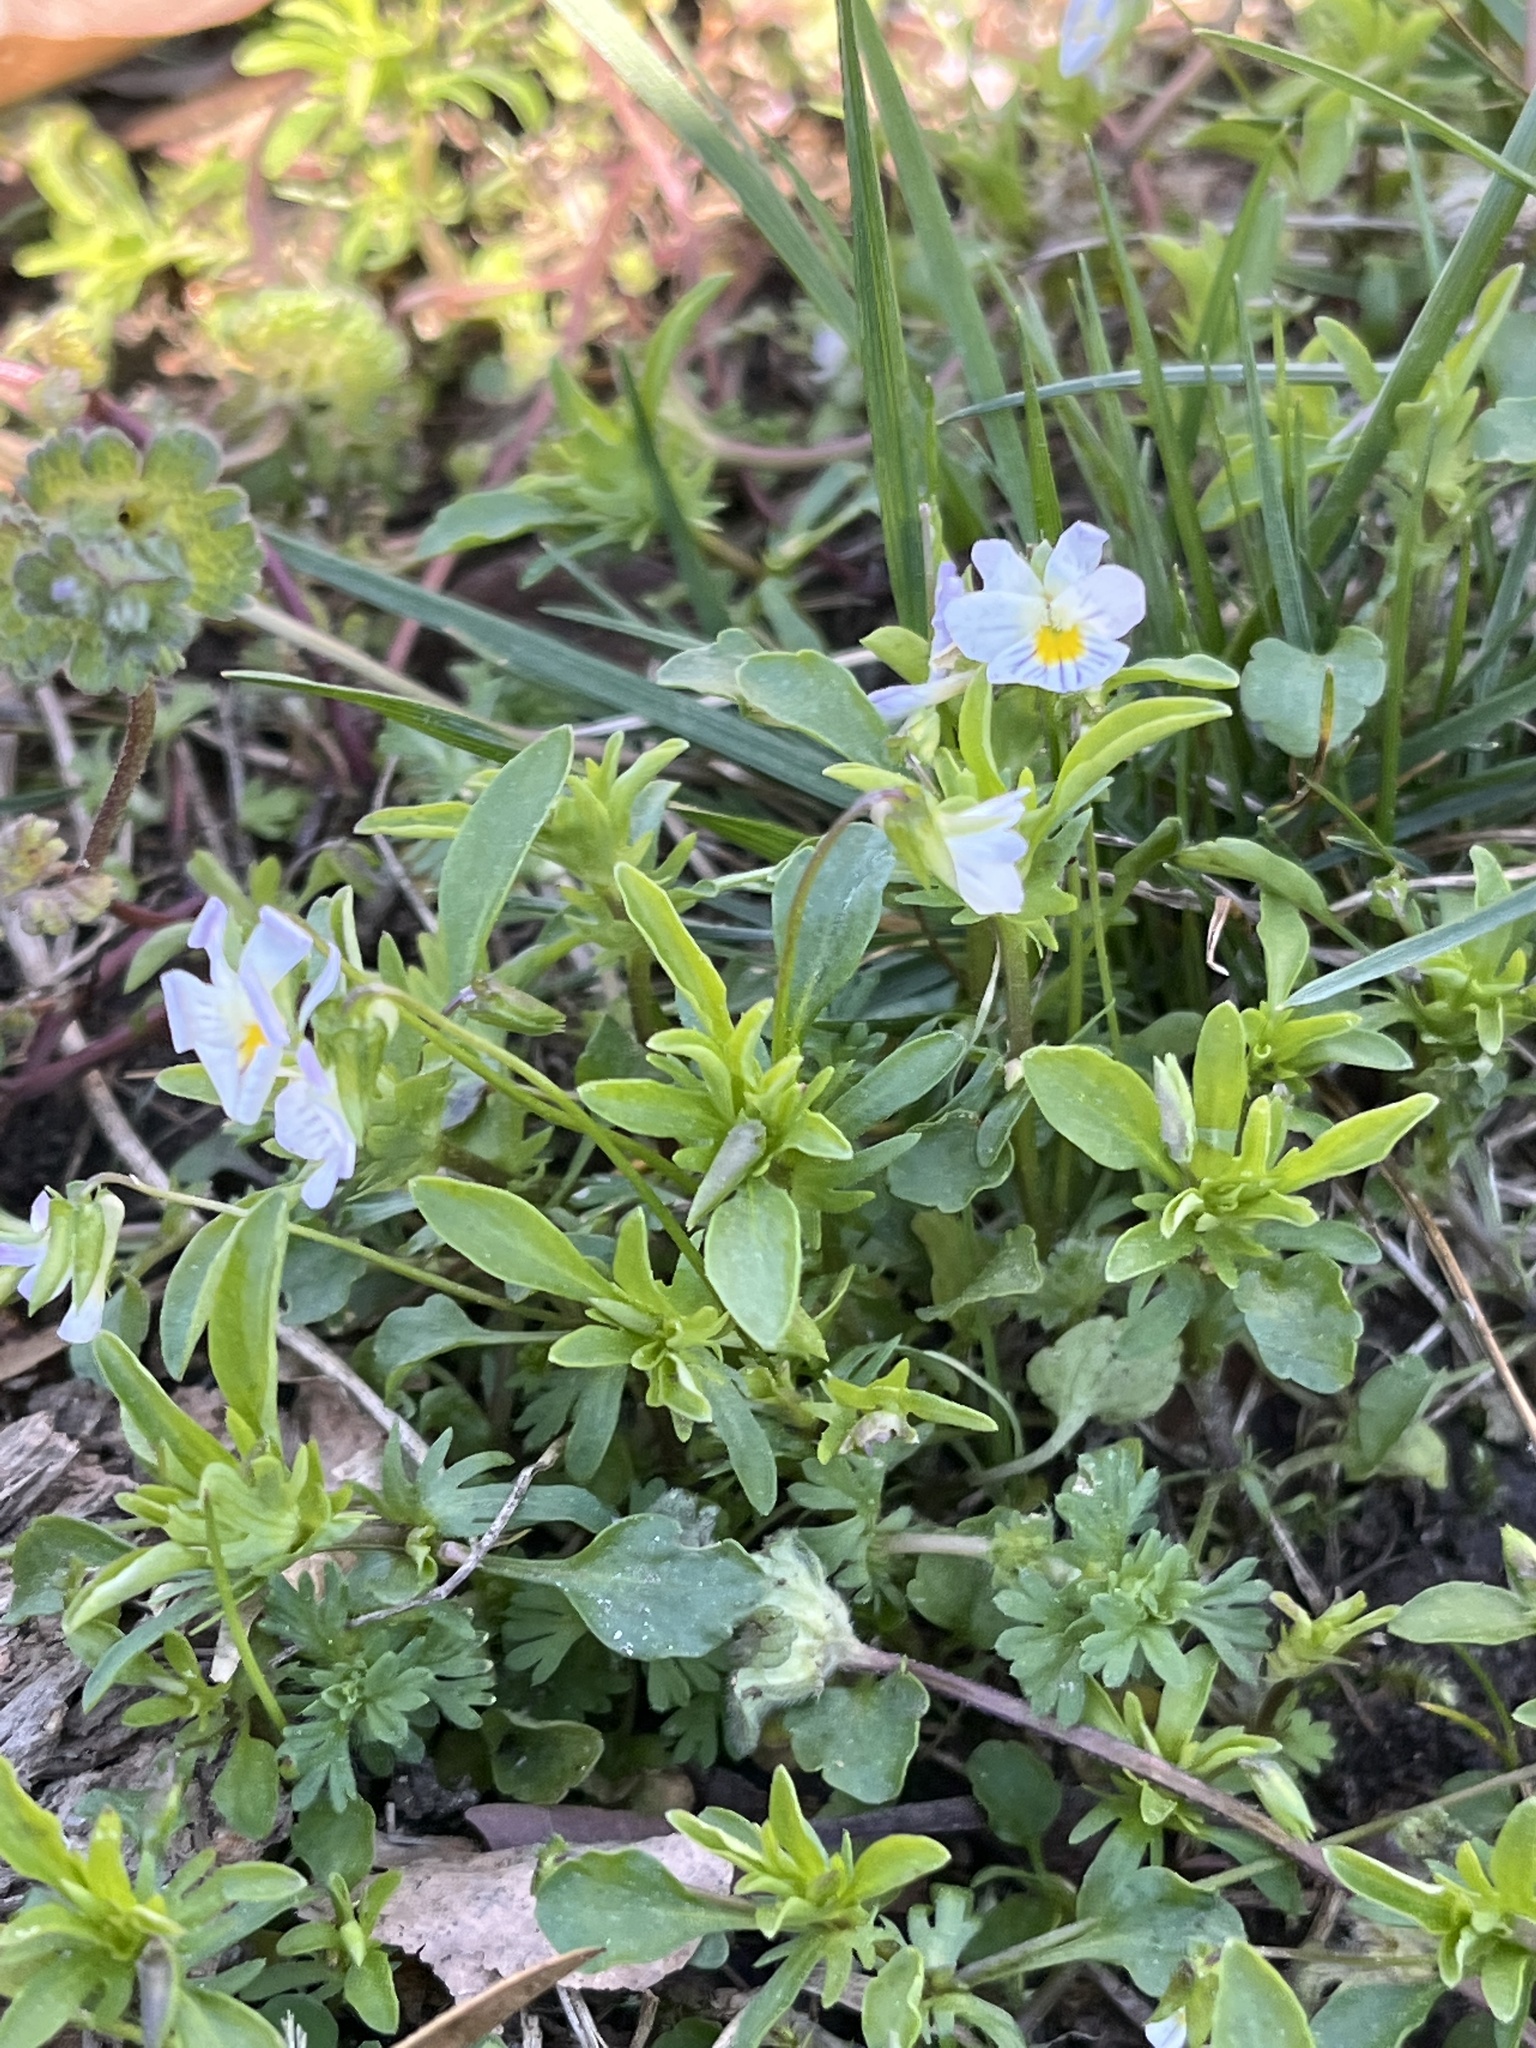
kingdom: Plantae
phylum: Tracheophyta
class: Magnoliopsida
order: Malpighiales
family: Violaceae
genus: Viola
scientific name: Viola rafinesquei
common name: American field pansy
